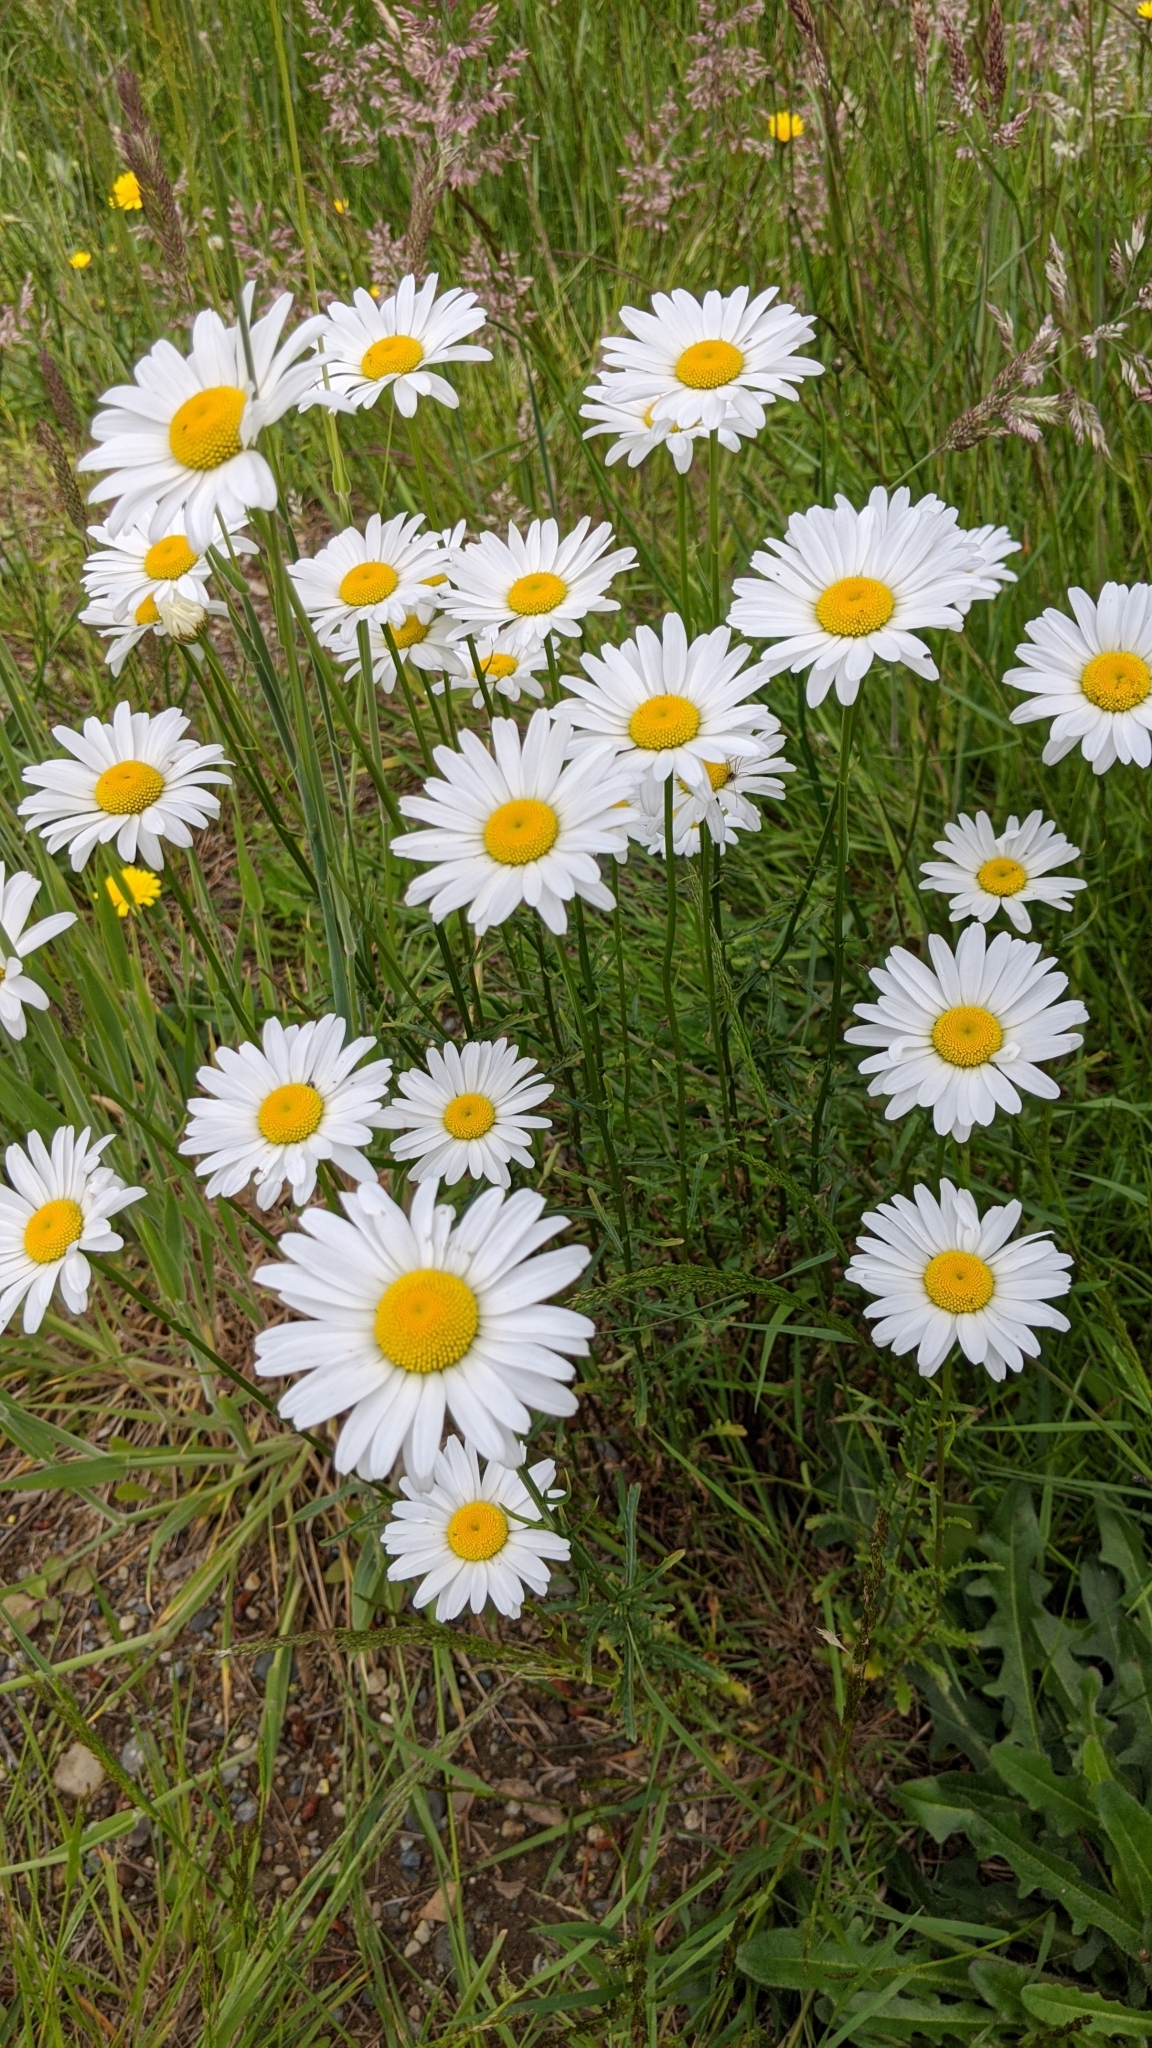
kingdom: Plantae
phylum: Tracheophyta
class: Magnoliopsida
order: Asterales
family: Asteraceae
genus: Leucanthemum
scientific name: Leucanthemum vulgare
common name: Oxeye daisy
